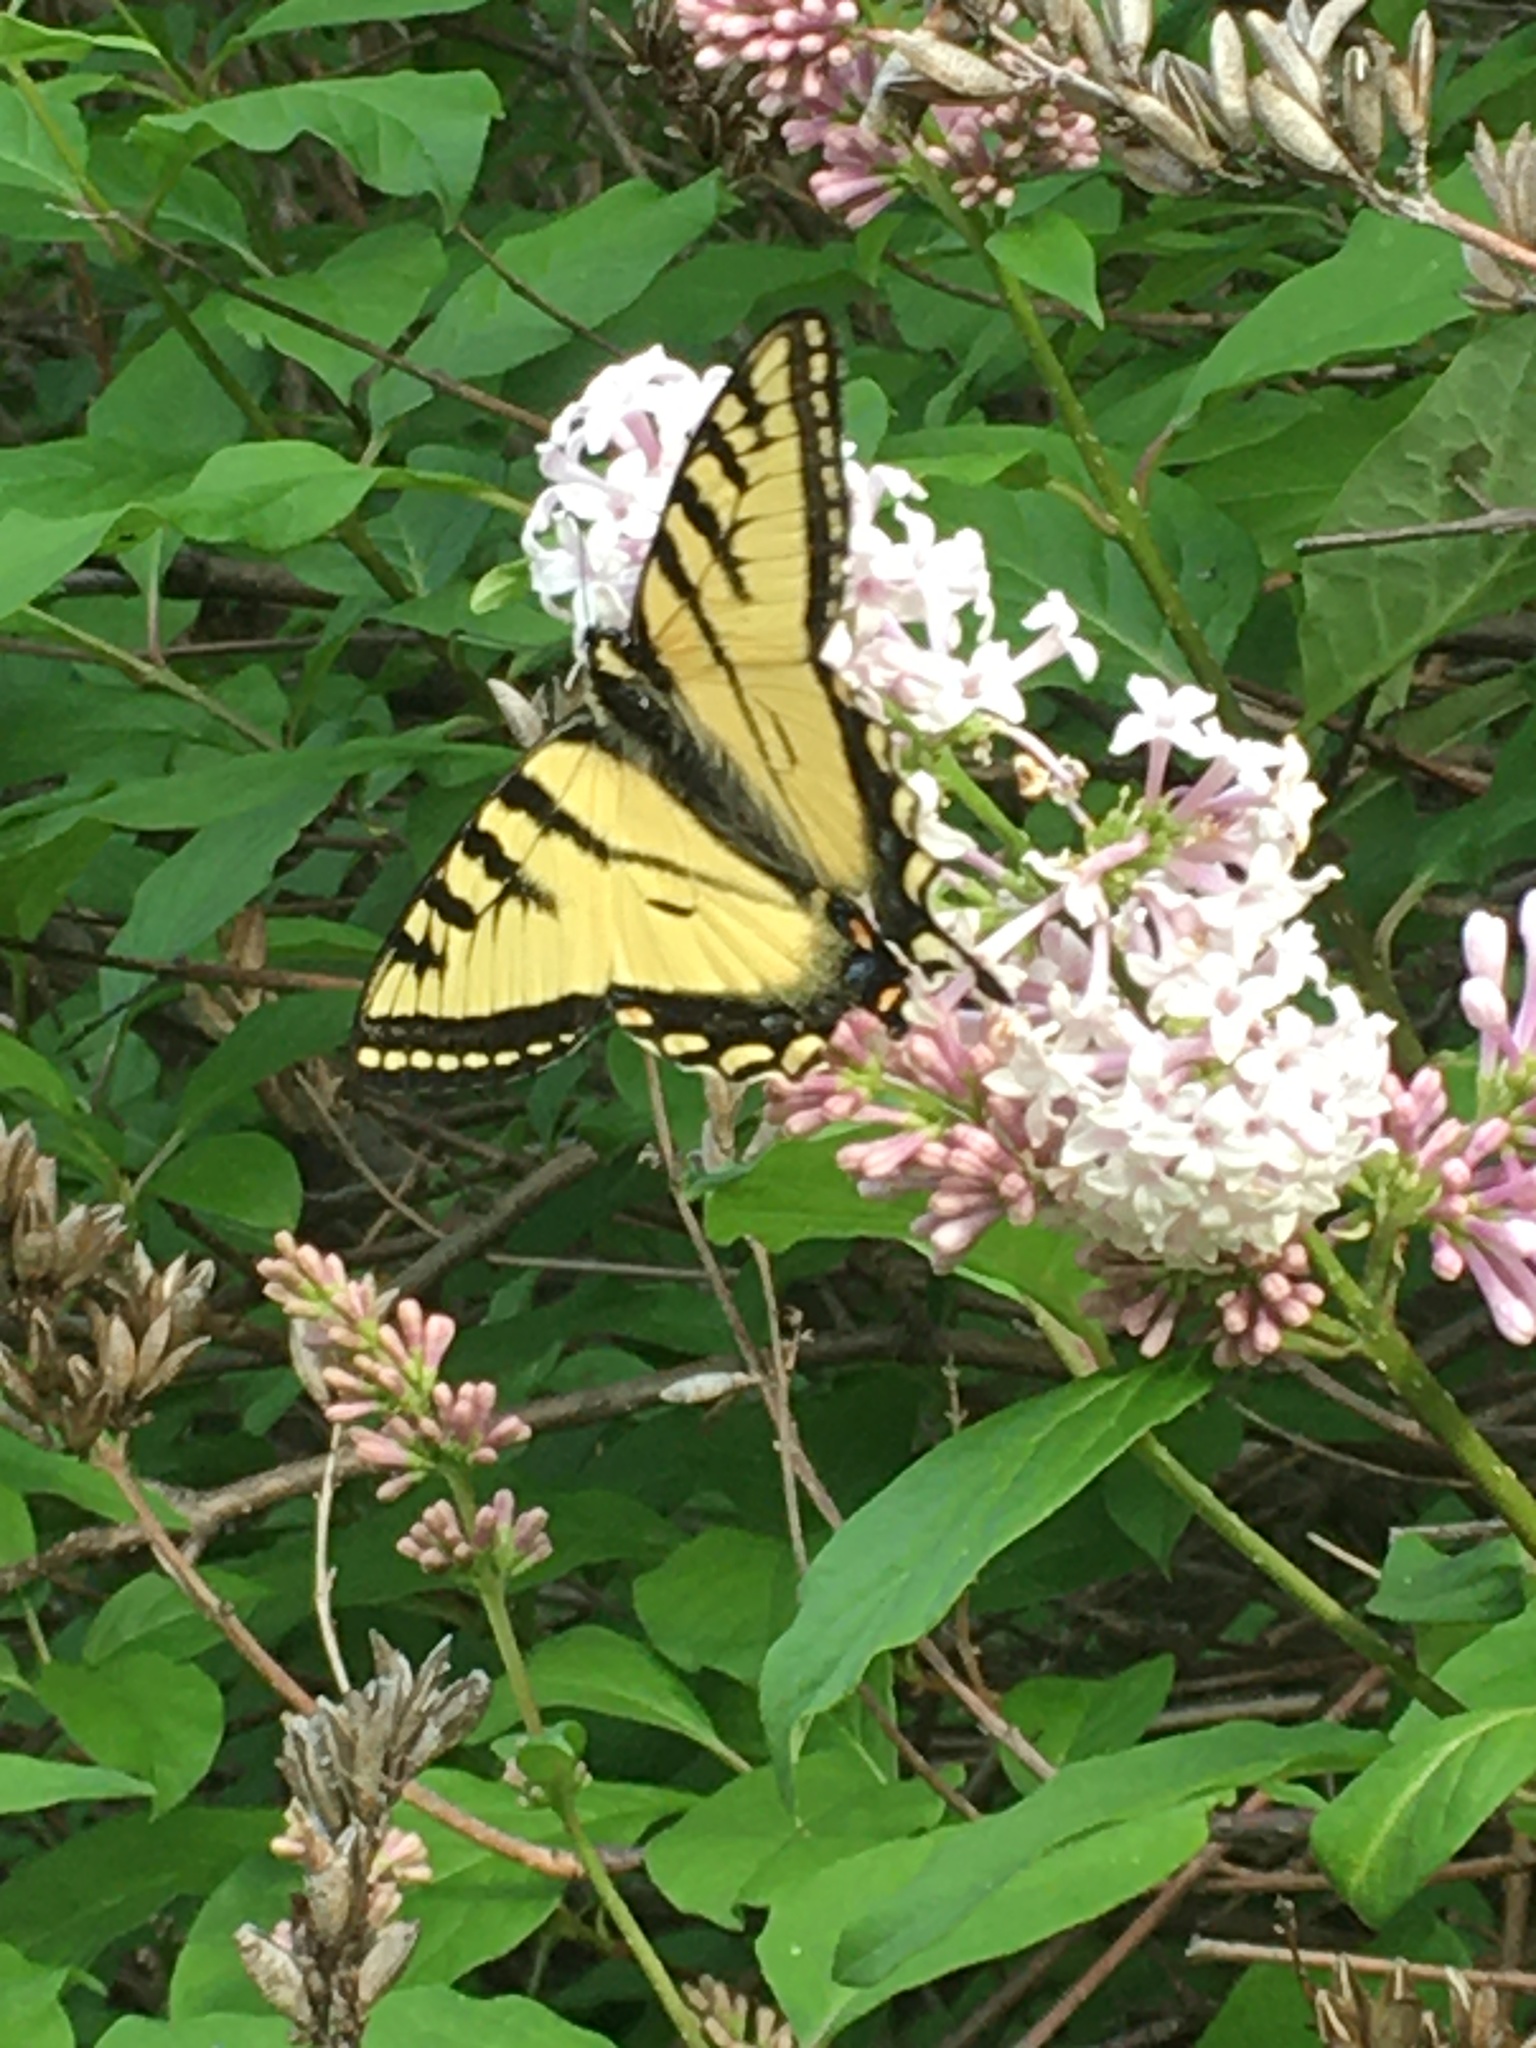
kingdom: Animalia
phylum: Arthropoda
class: Insecta
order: Lepidoptera
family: Papilionidae
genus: Papilio
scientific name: Papilio canadensis
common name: Canadian tiger swallowtail
